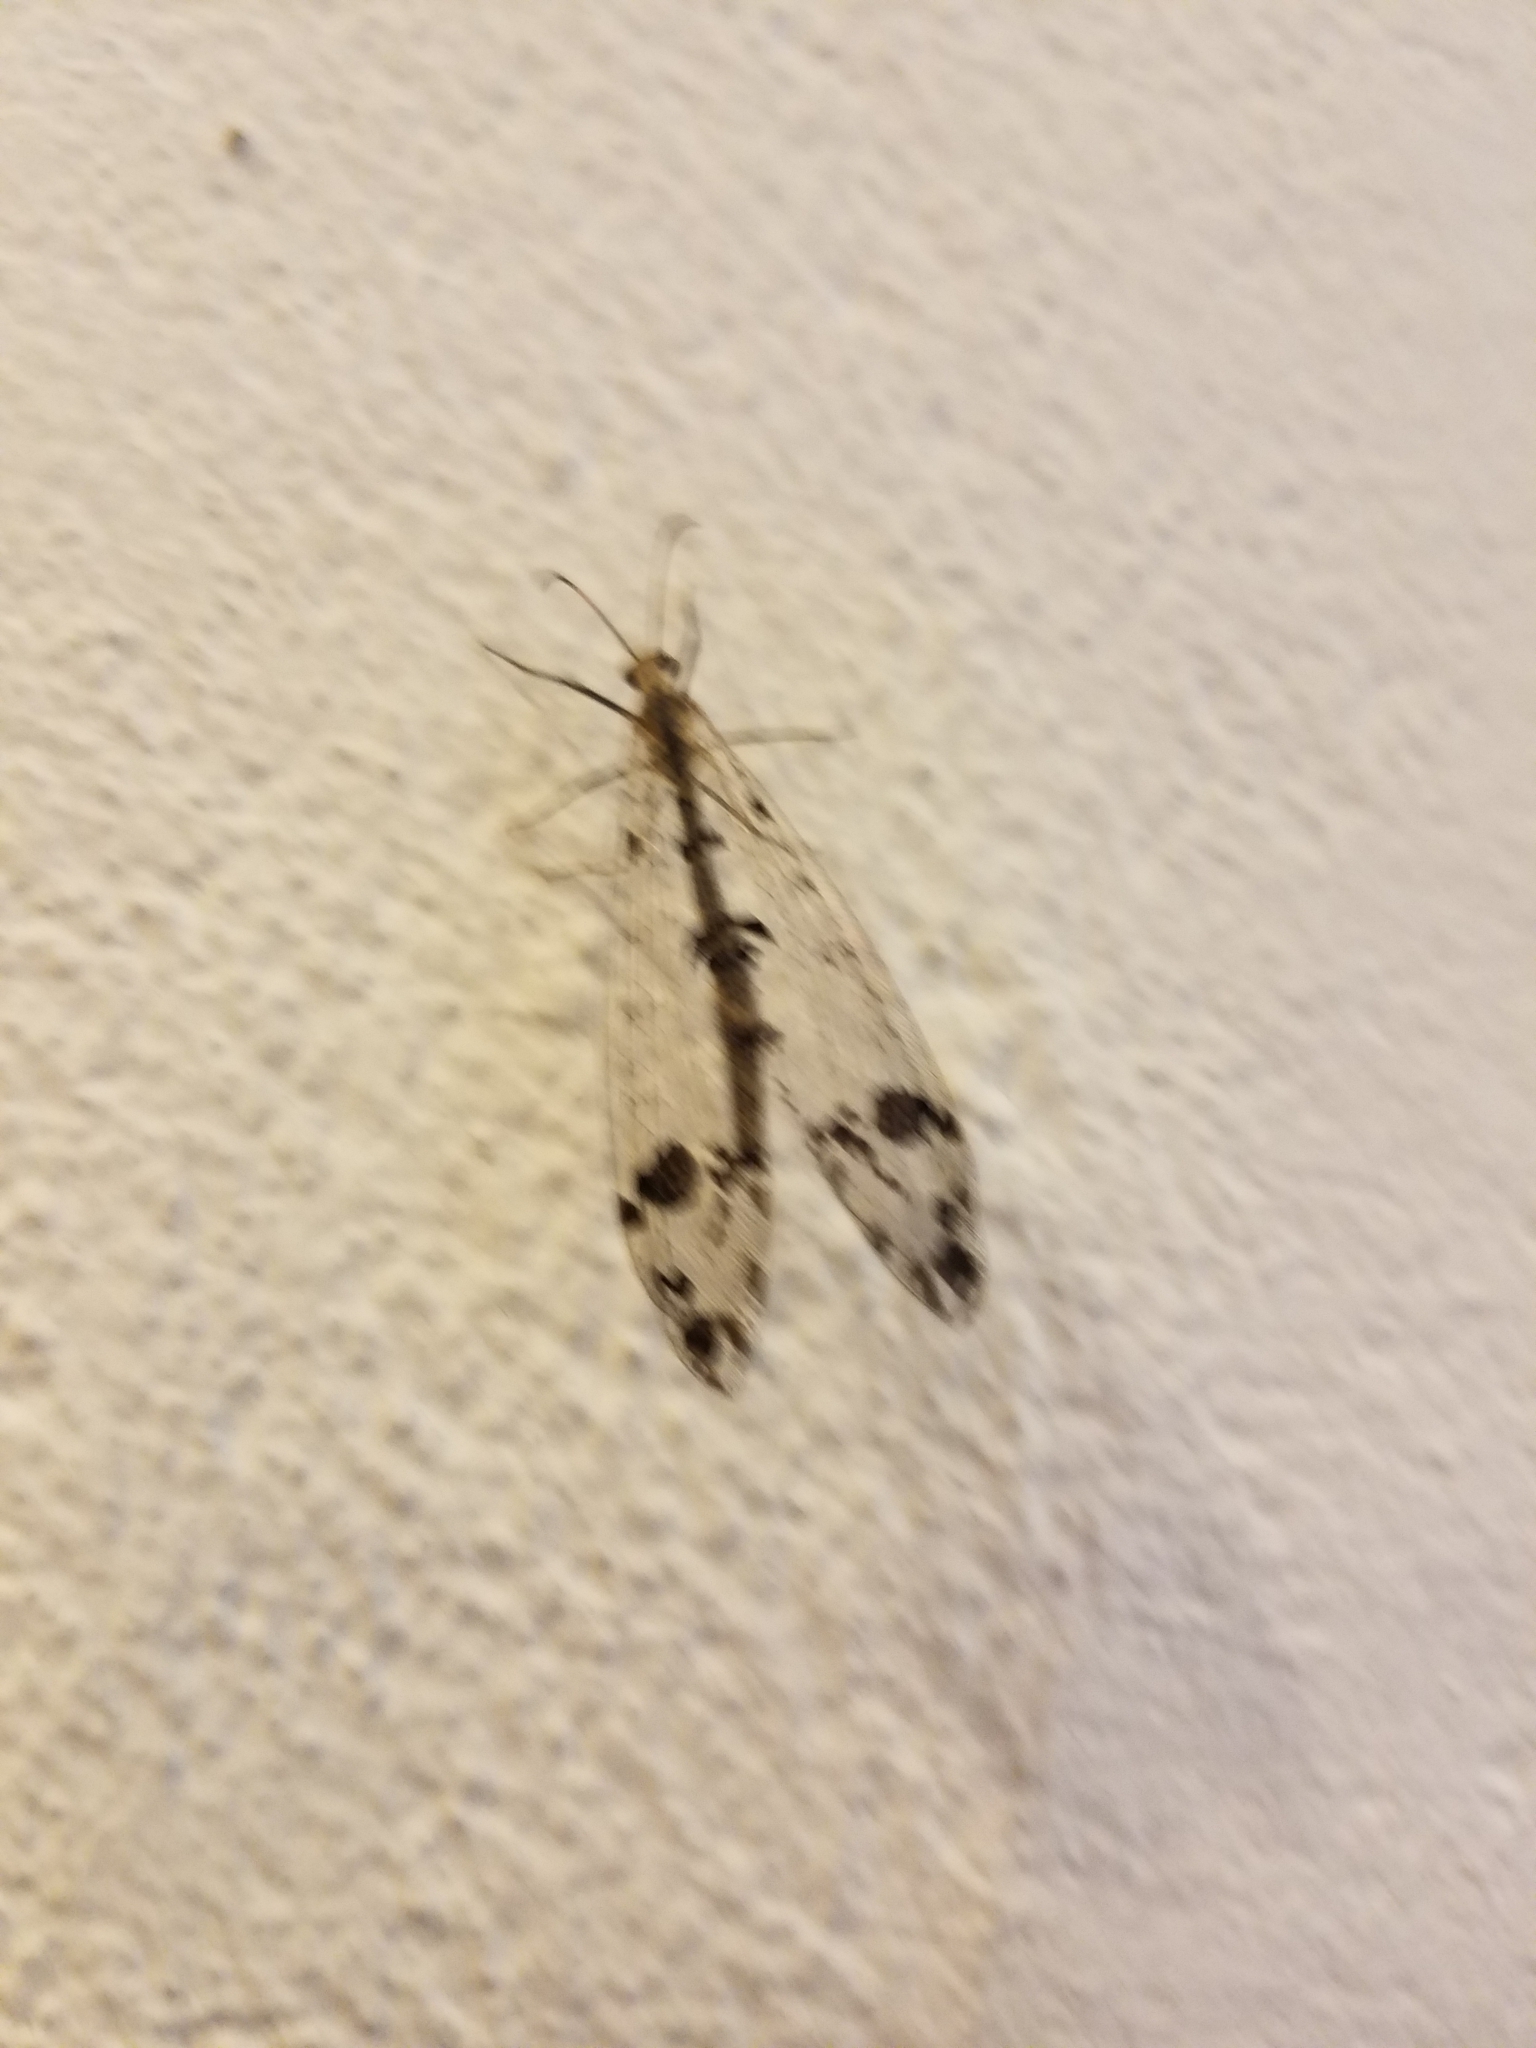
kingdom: Animalia
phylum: Arthropoda
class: Insecta
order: Neuroptera
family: Myrmeleontidae
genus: Dendroleon
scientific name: Dendroleon obsoletus
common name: Eastern spotted-winged antlion
